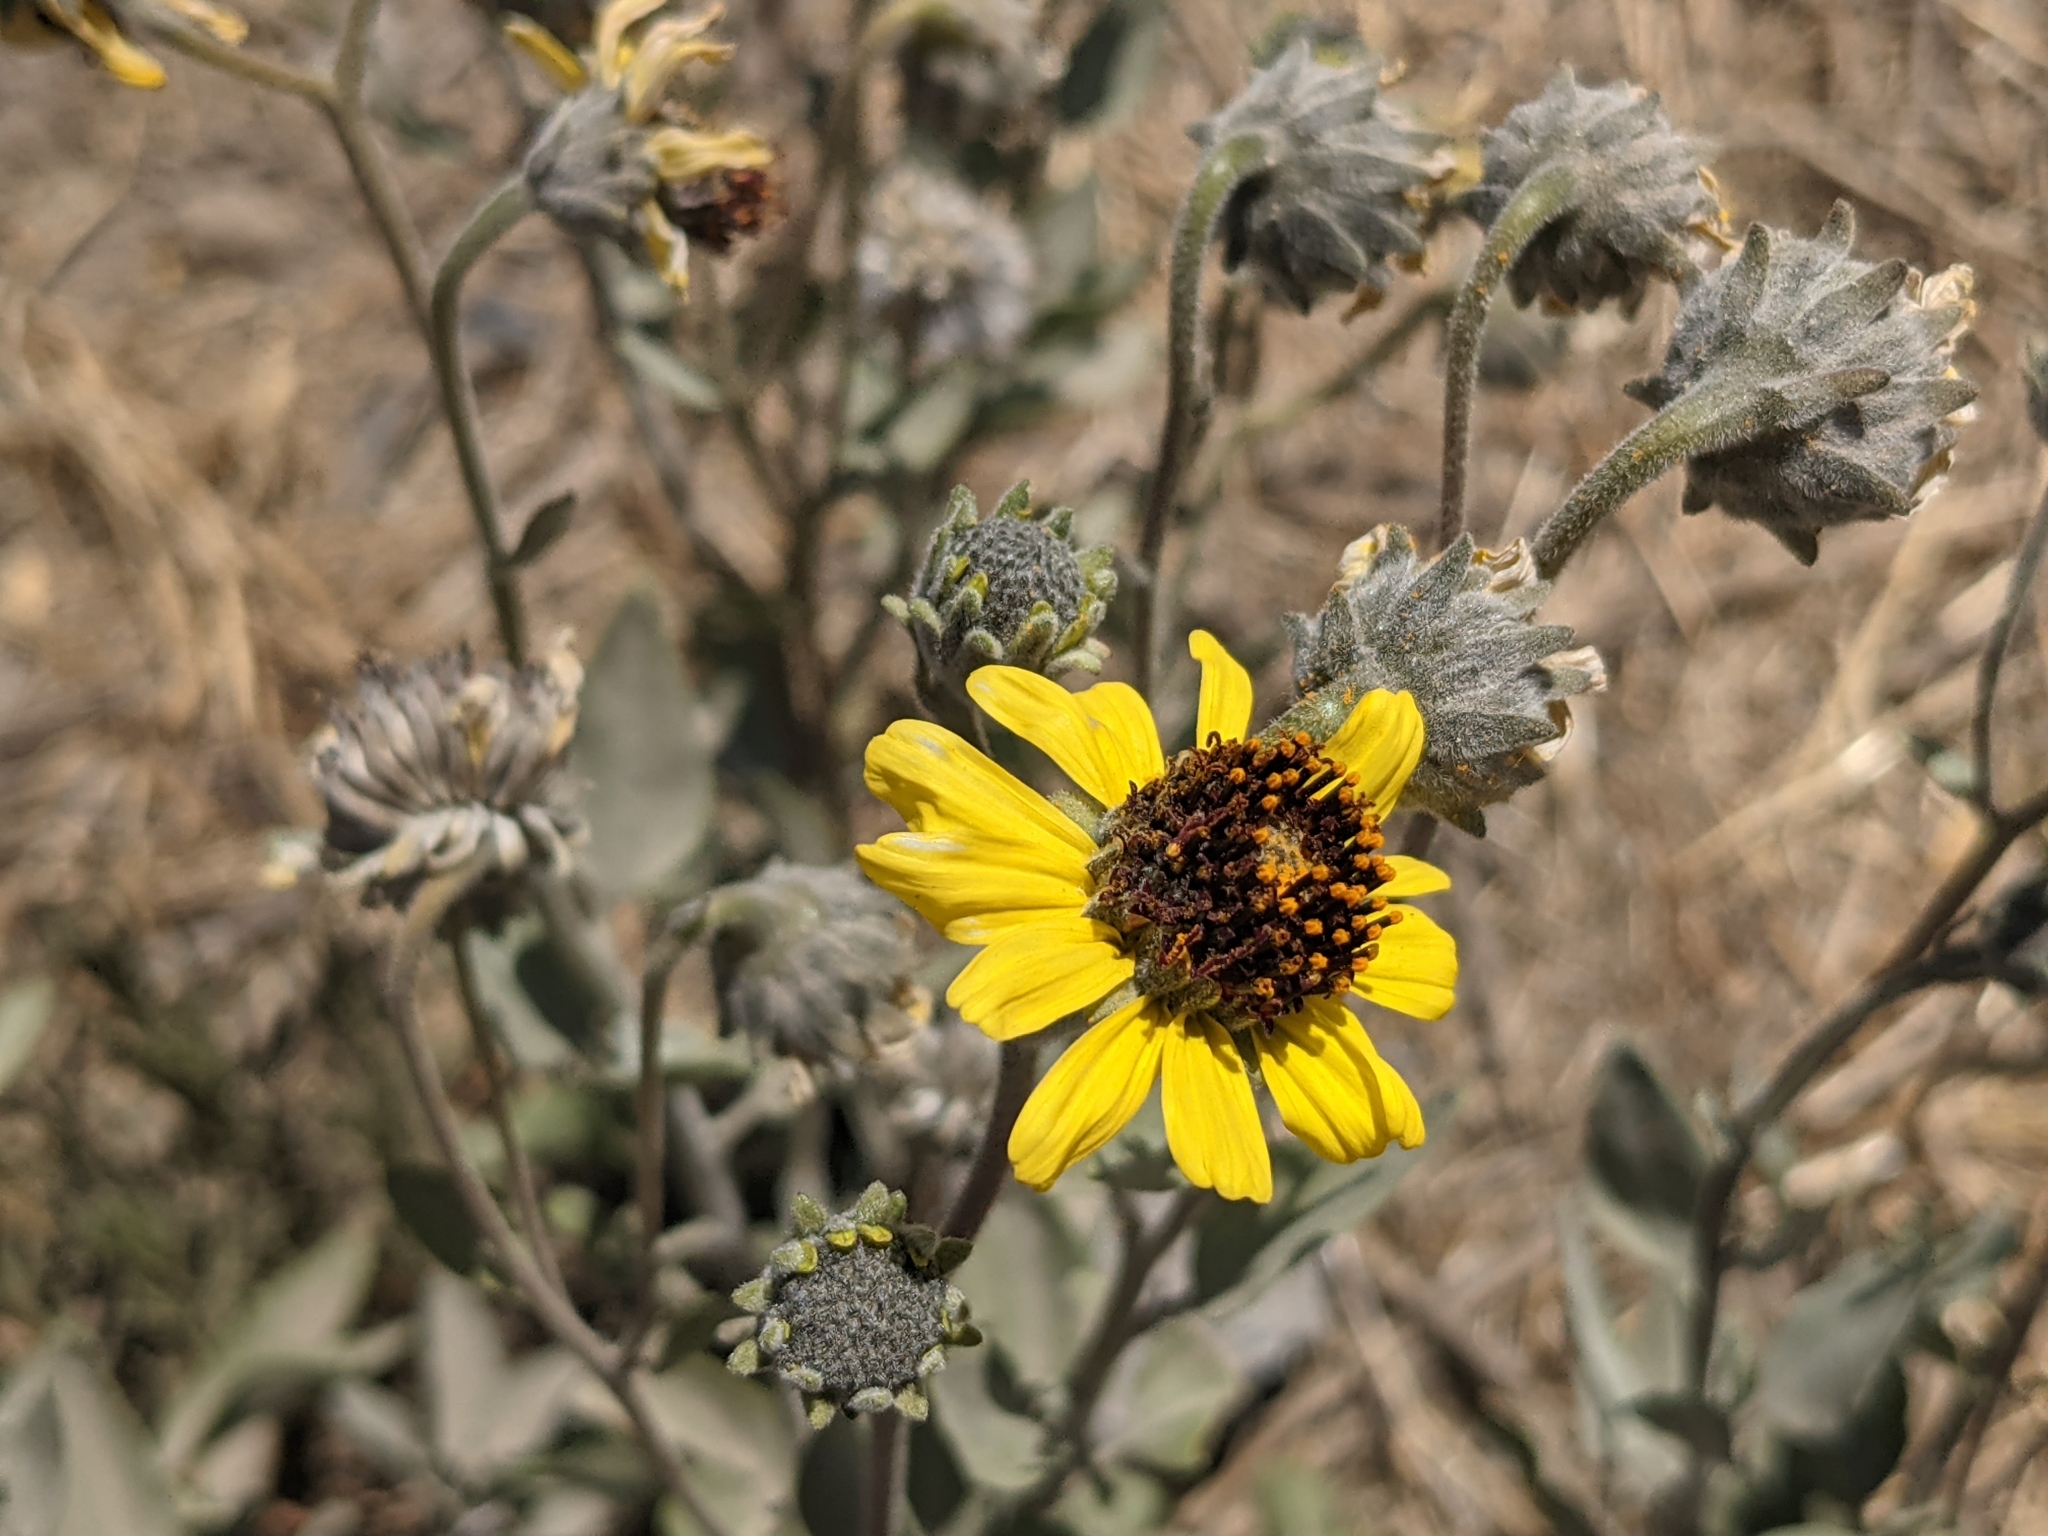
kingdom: Plantae
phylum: Tracheophyta
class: Magnoliopsida
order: Asterales
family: Asteraceae
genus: Encelia
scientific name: Encelia canescens
